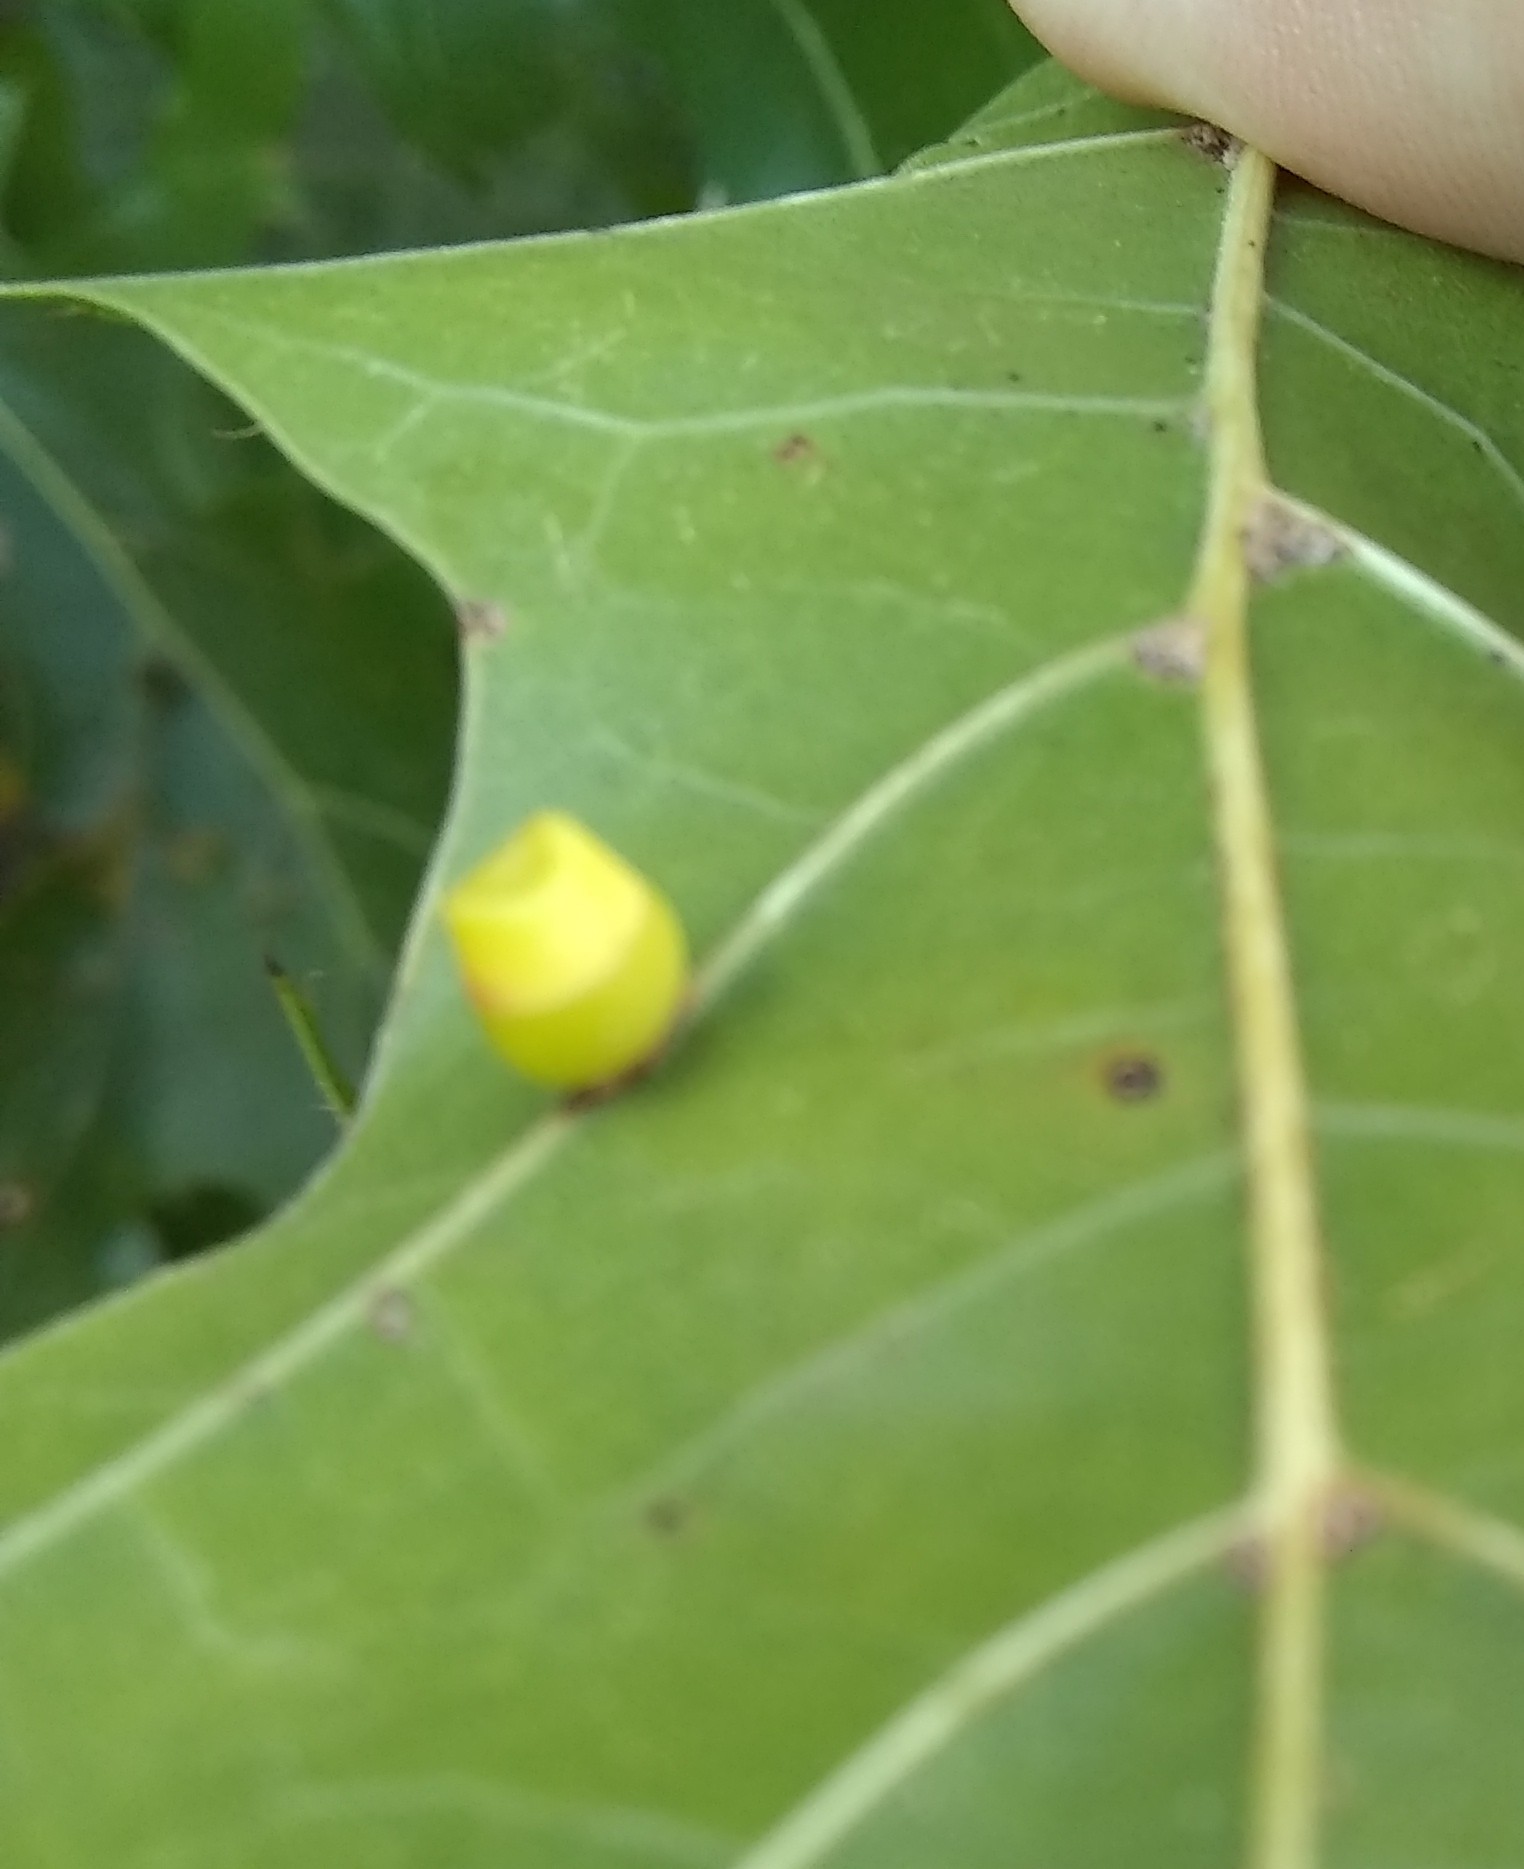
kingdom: Animalia
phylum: Arthropoda
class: Insecta
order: Hymenoptera
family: Cynipidae
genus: Kokkocynips
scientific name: Kokkocynips rileyi
